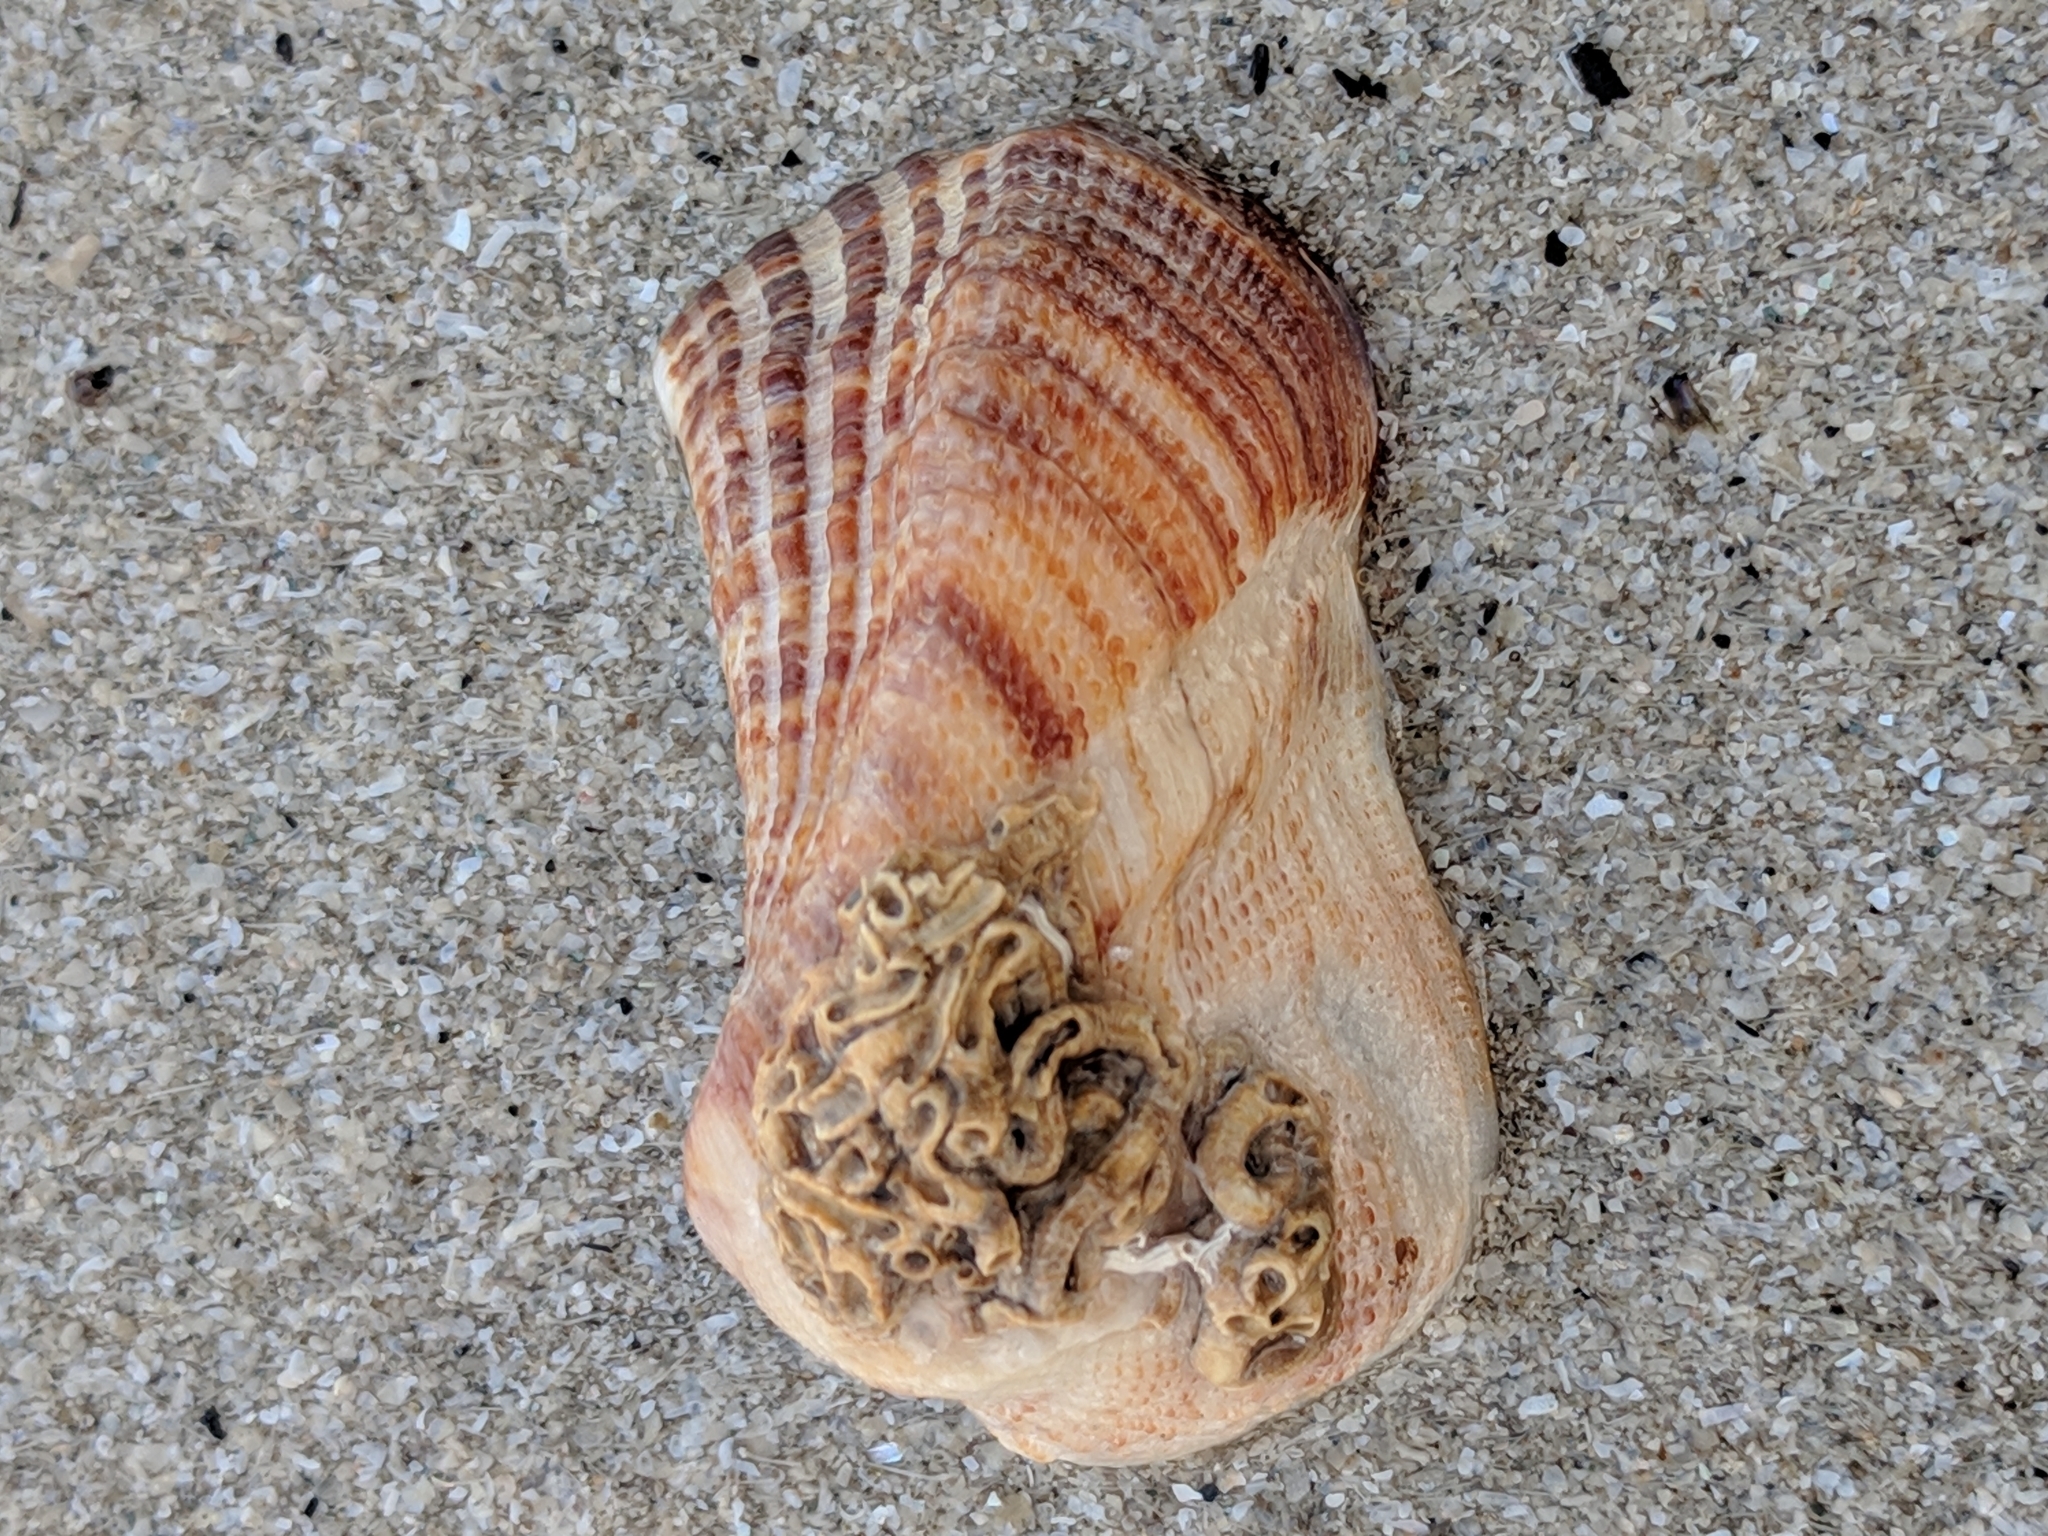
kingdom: Animalia
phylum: Mollusca
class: Bivalvia
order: Arcida
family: Arcidae
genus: Lamarcka
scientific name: Lamarcka imbricata
